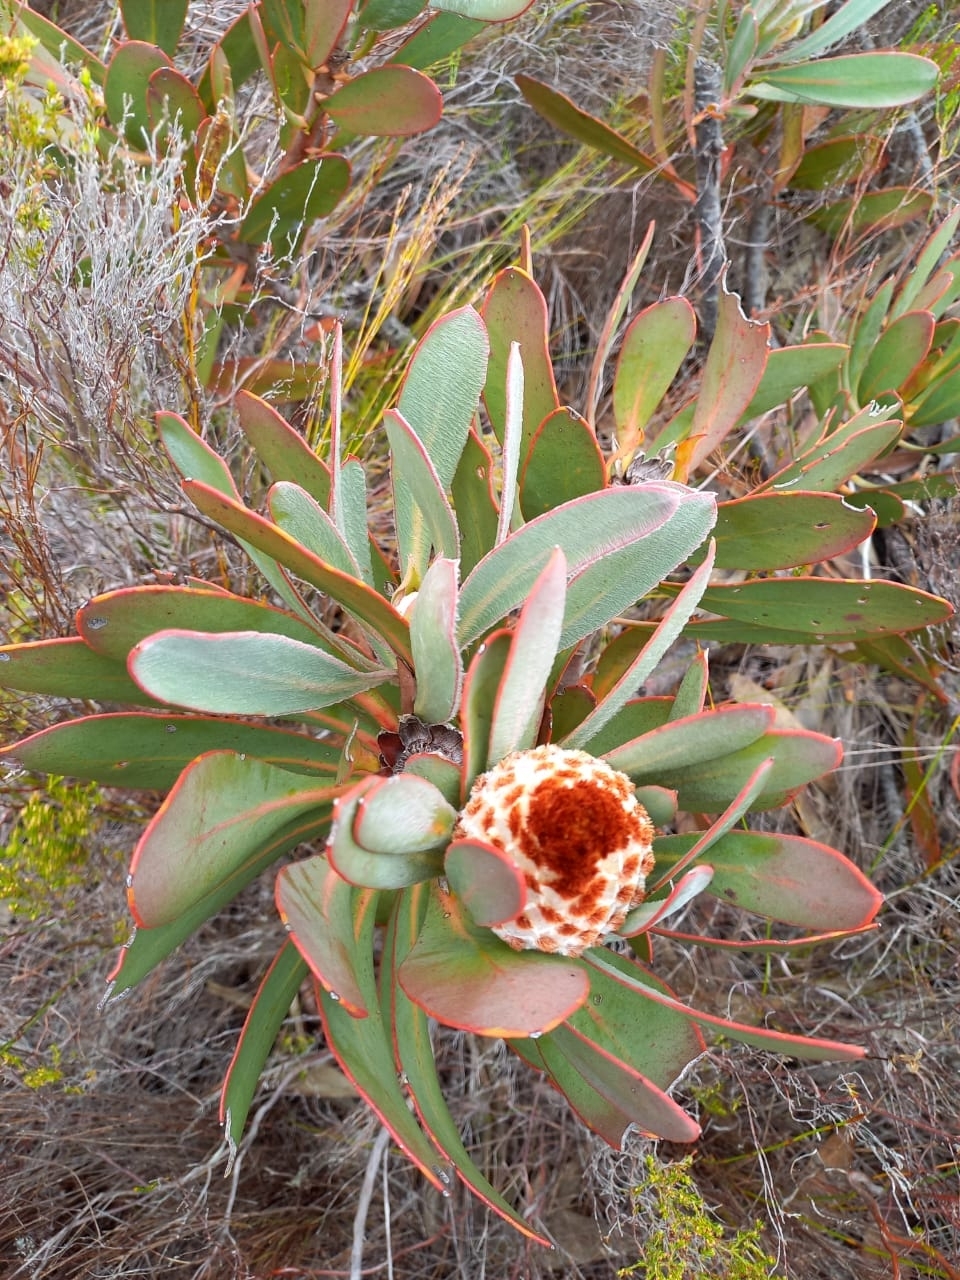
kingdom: Plantae
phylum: Tracheophyta
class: Magnoliopsida
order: Proteales
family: Proteaceae
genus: Protea
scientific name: Protea speciosa
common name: Brown-beard sugarbush
